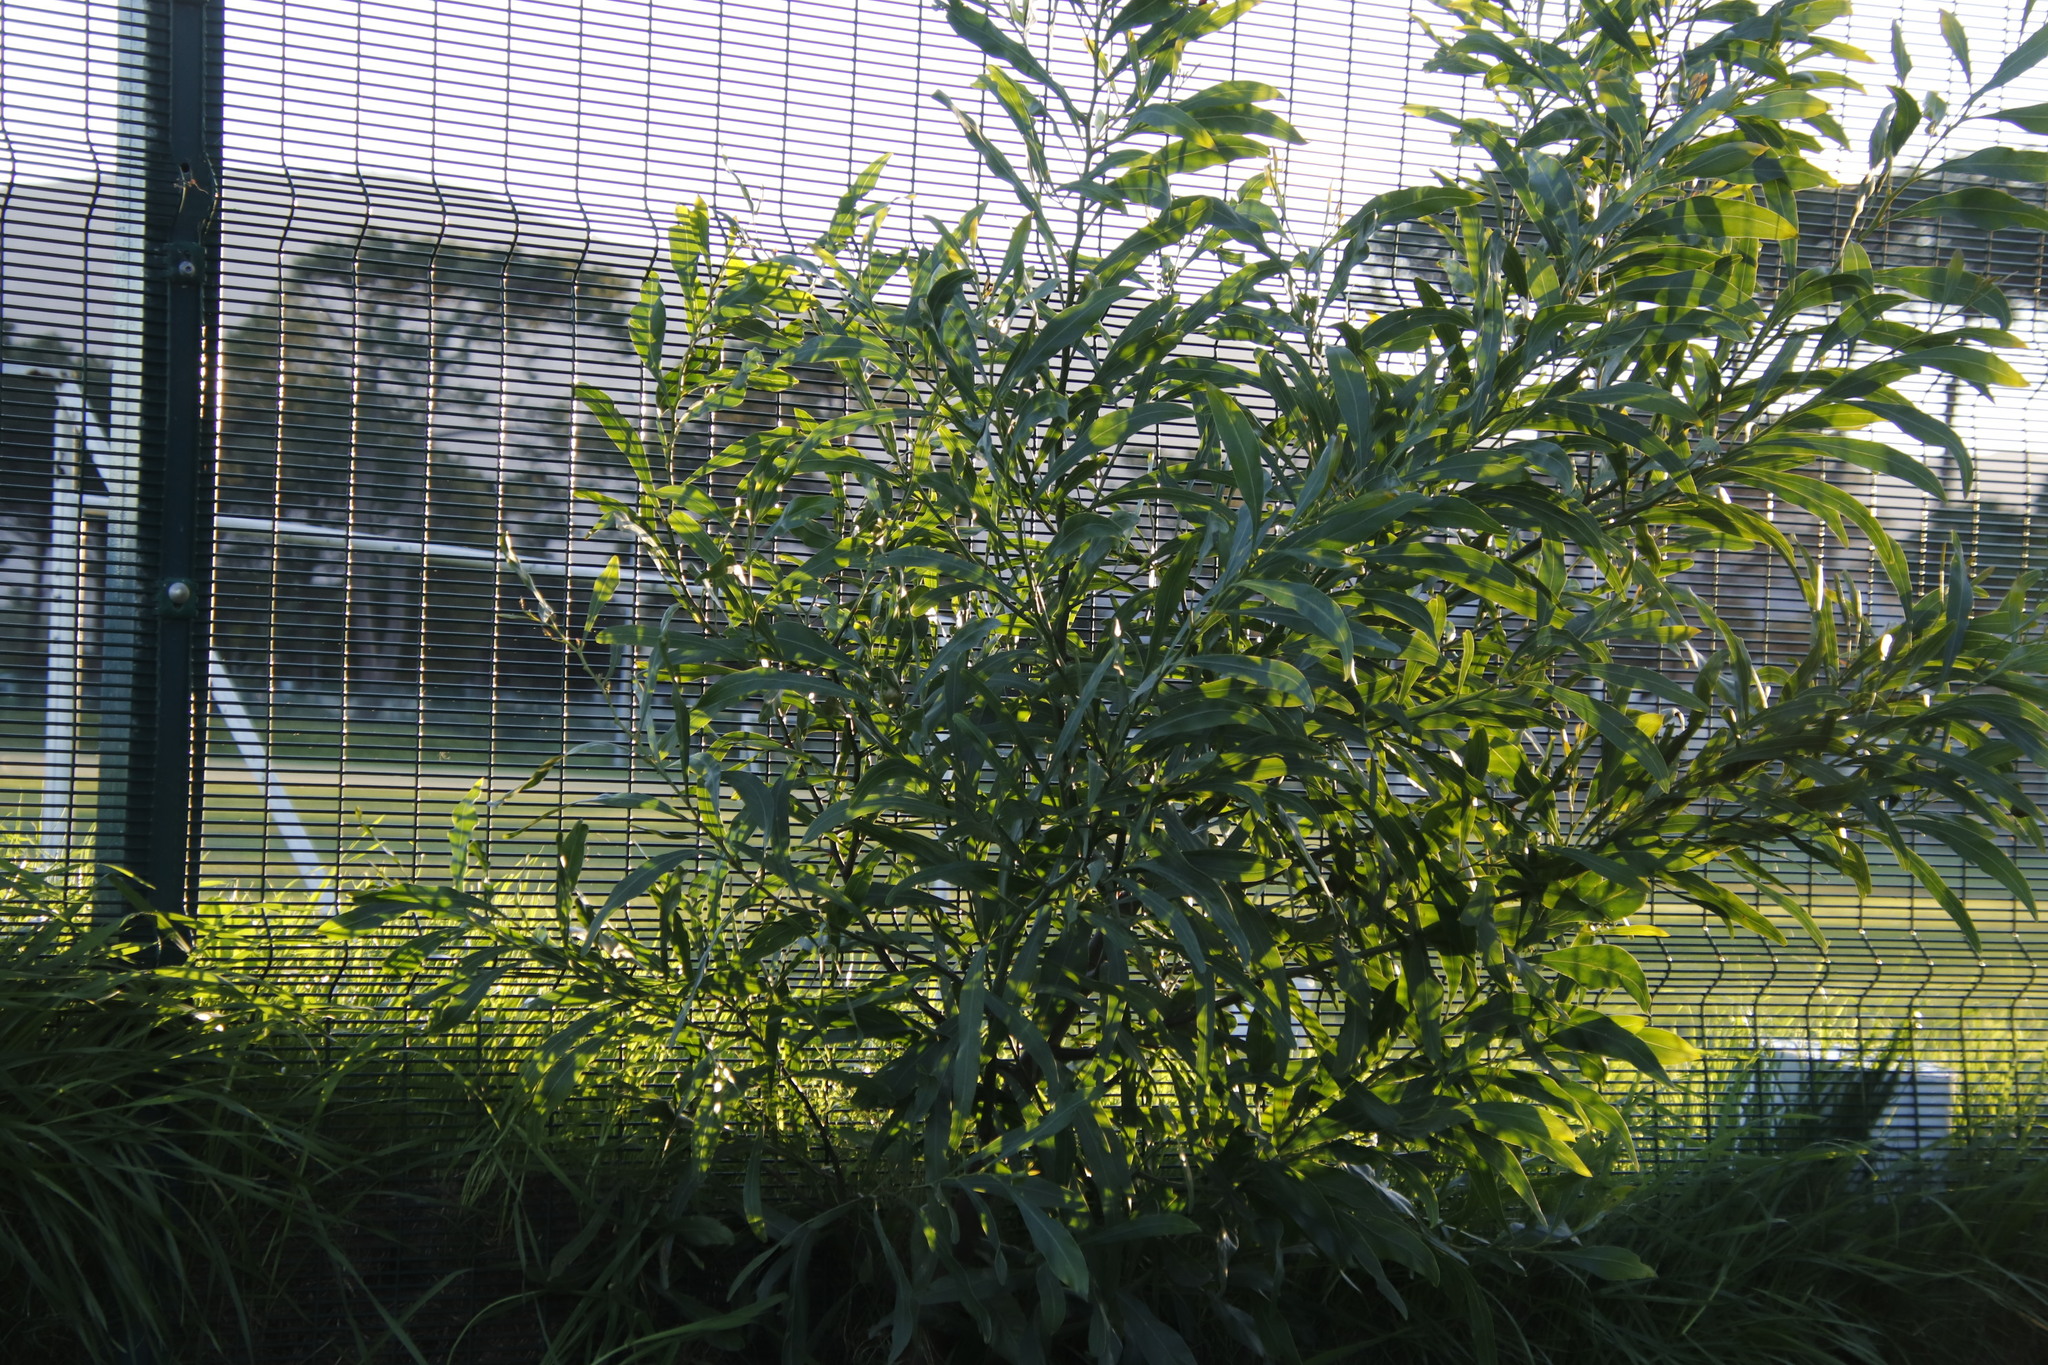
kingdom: Plantae
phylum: Tracheophyta
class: Magnoliopsida
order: Fabales
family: Fabaceae
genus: Acacia
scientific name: Acacia saligna
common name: Orange wattle
